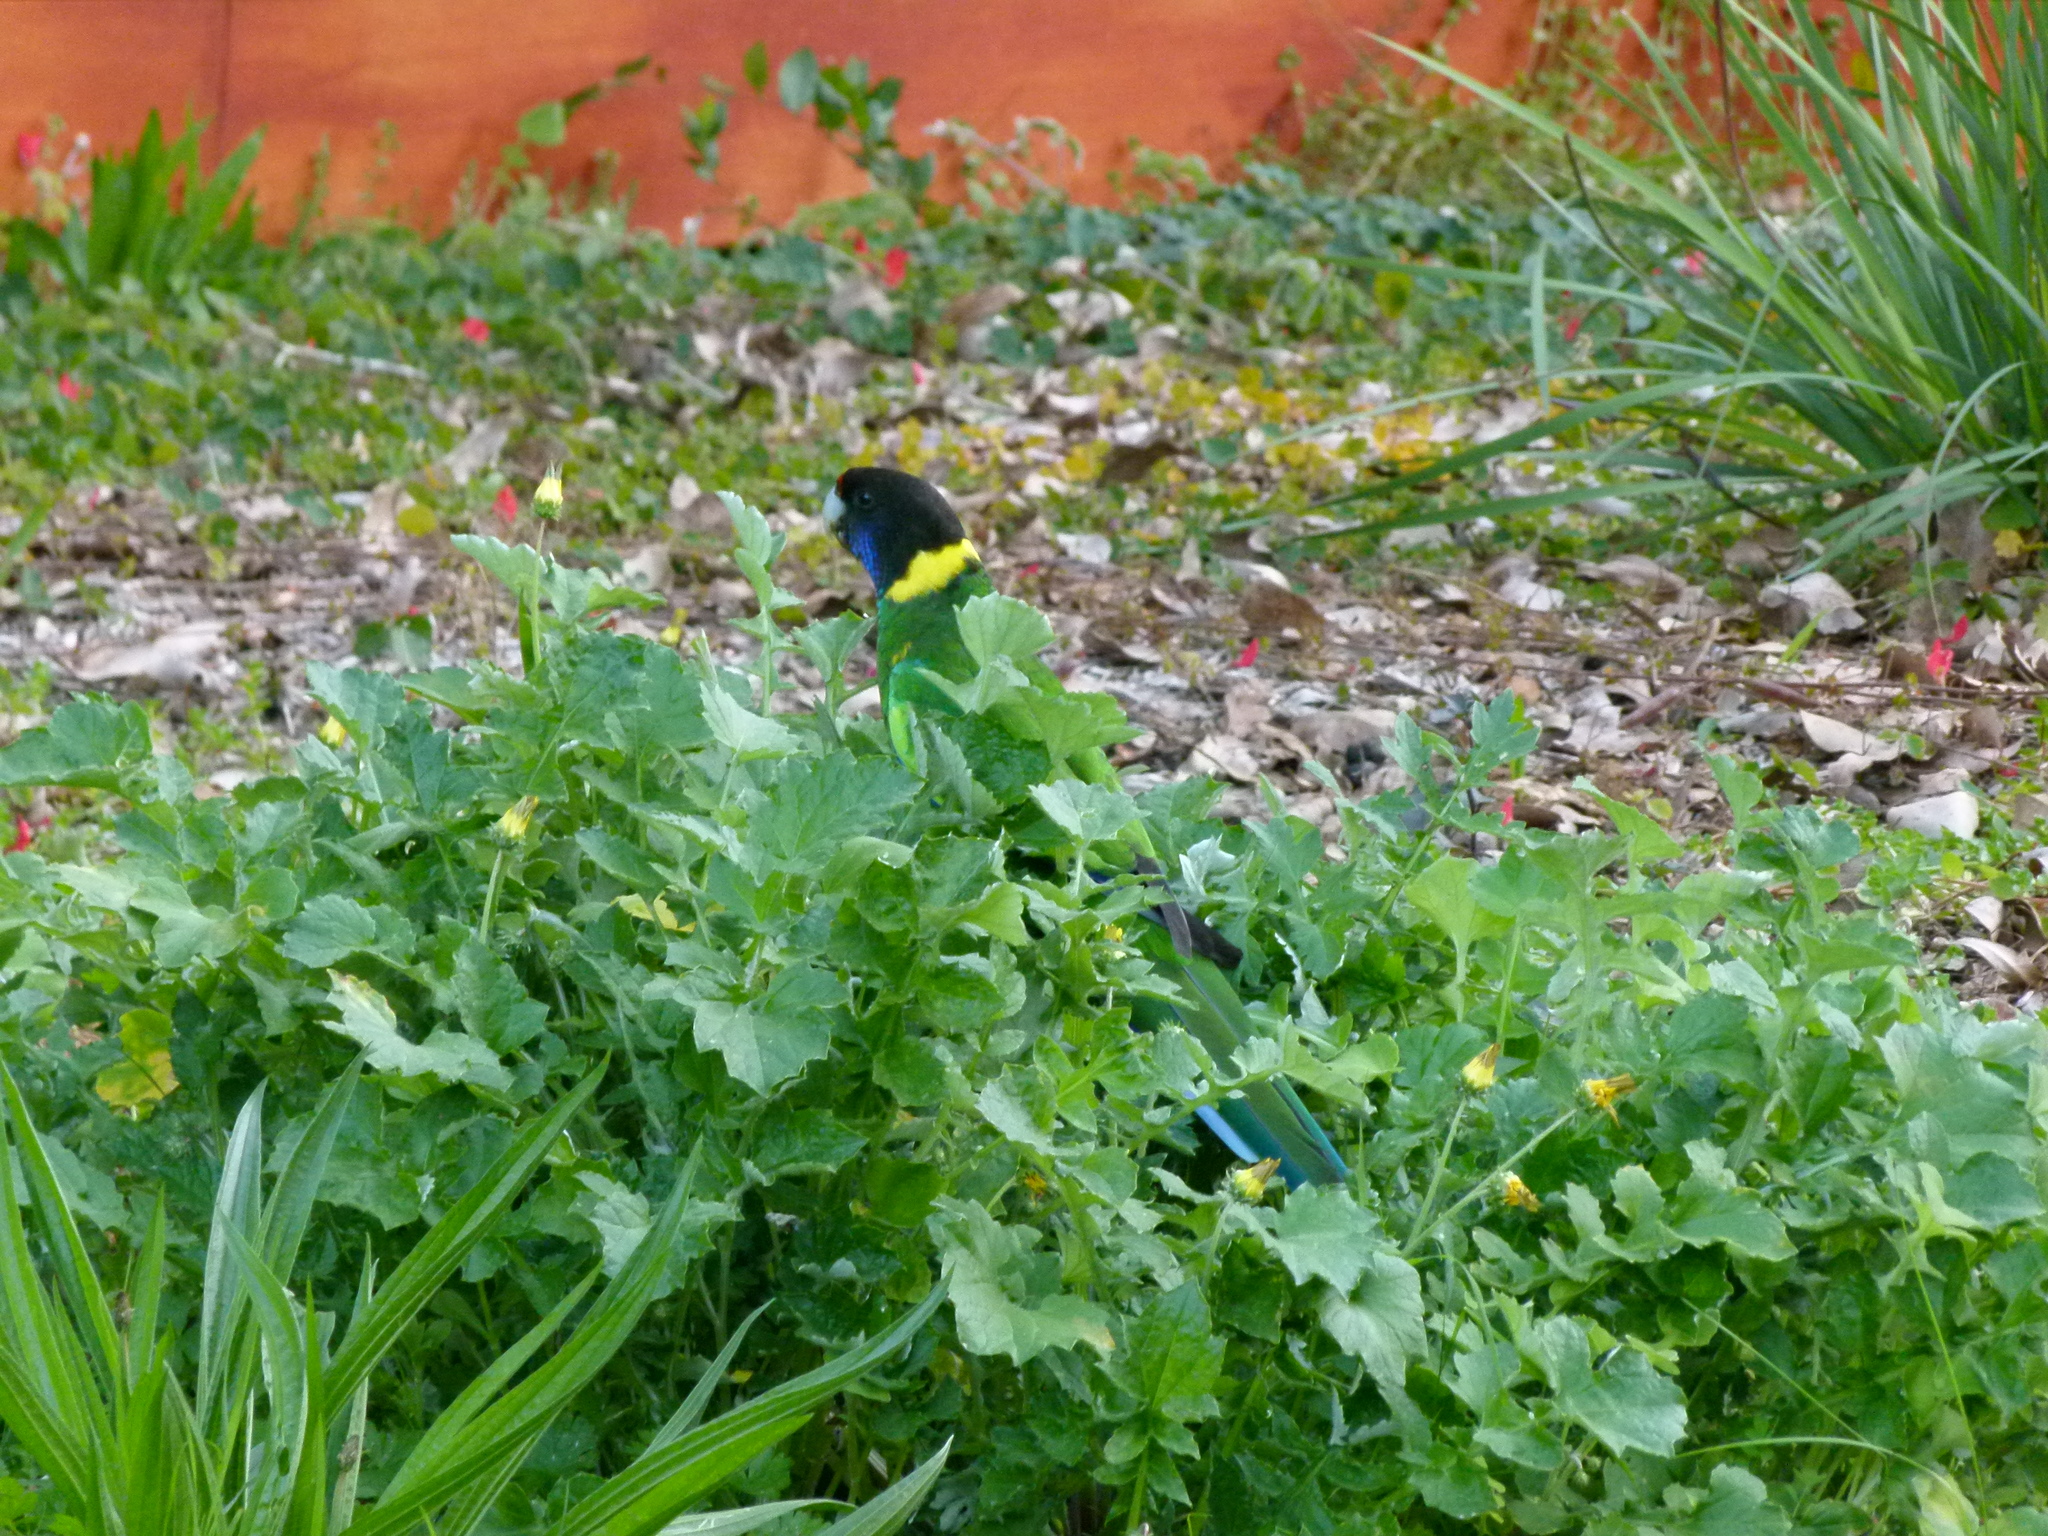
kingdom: Animalia
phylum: Chordata
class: Aves
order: Psittaciformes
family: Psittacidae
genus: Barnardius
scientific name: Barnardius zonarius
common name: Australian ringneck
